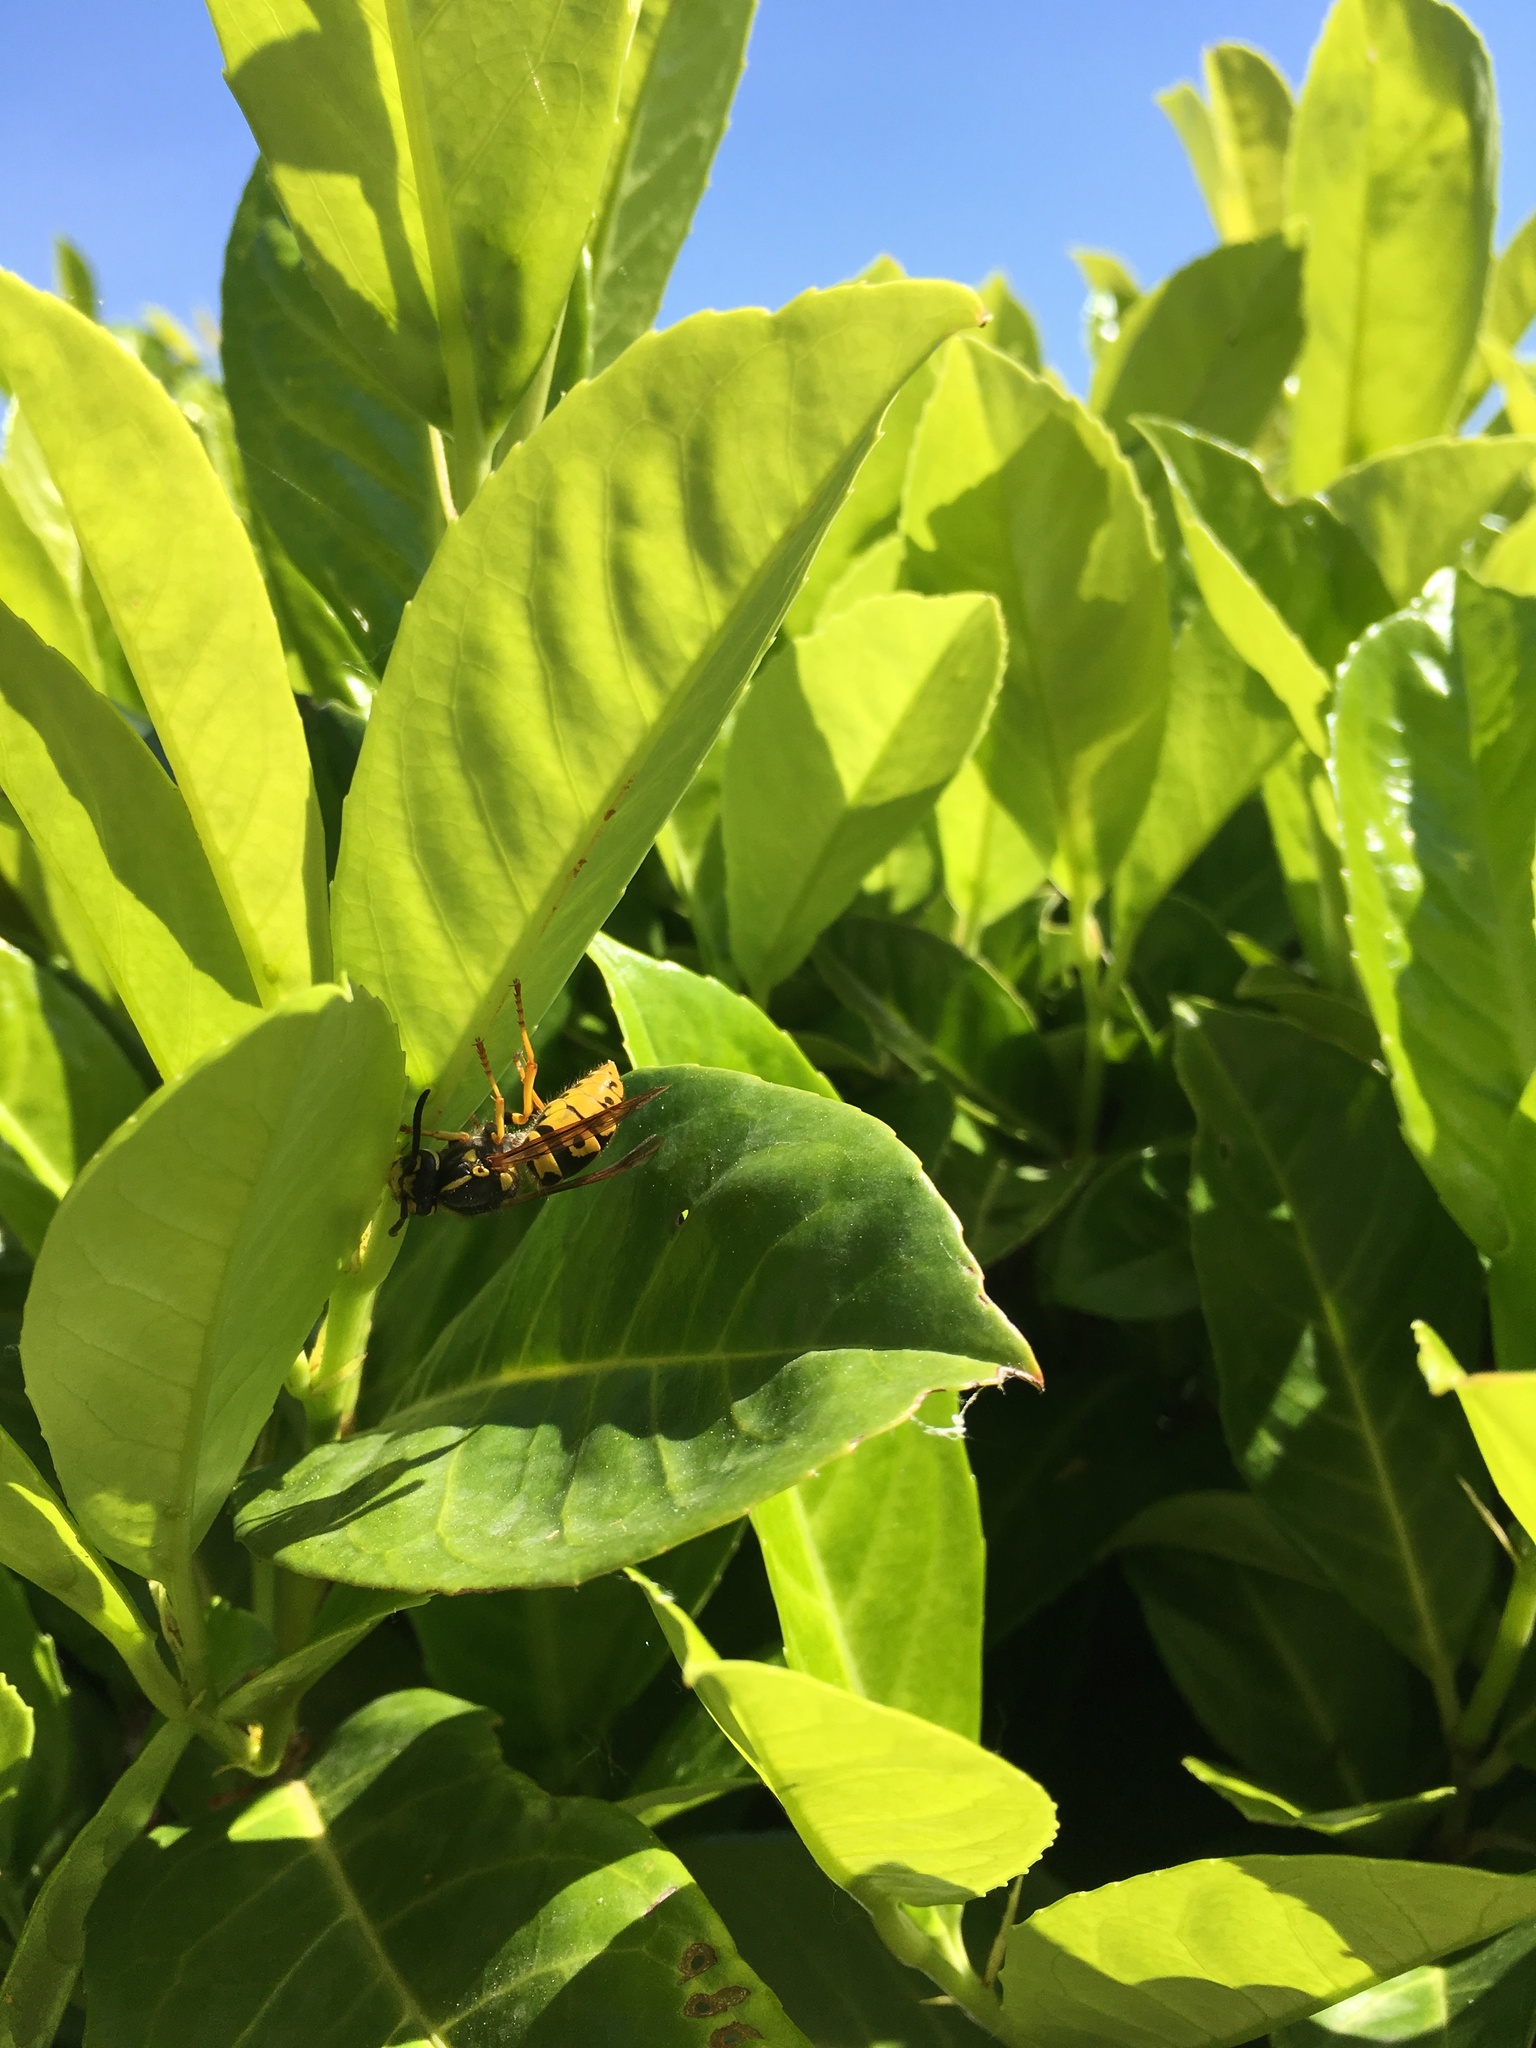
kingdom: Animalia
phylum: Arthropoda
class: Insecta
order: Hymenoptera
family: Vespidae
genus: Vespula
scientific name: Vespula germanica
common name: German wasp
